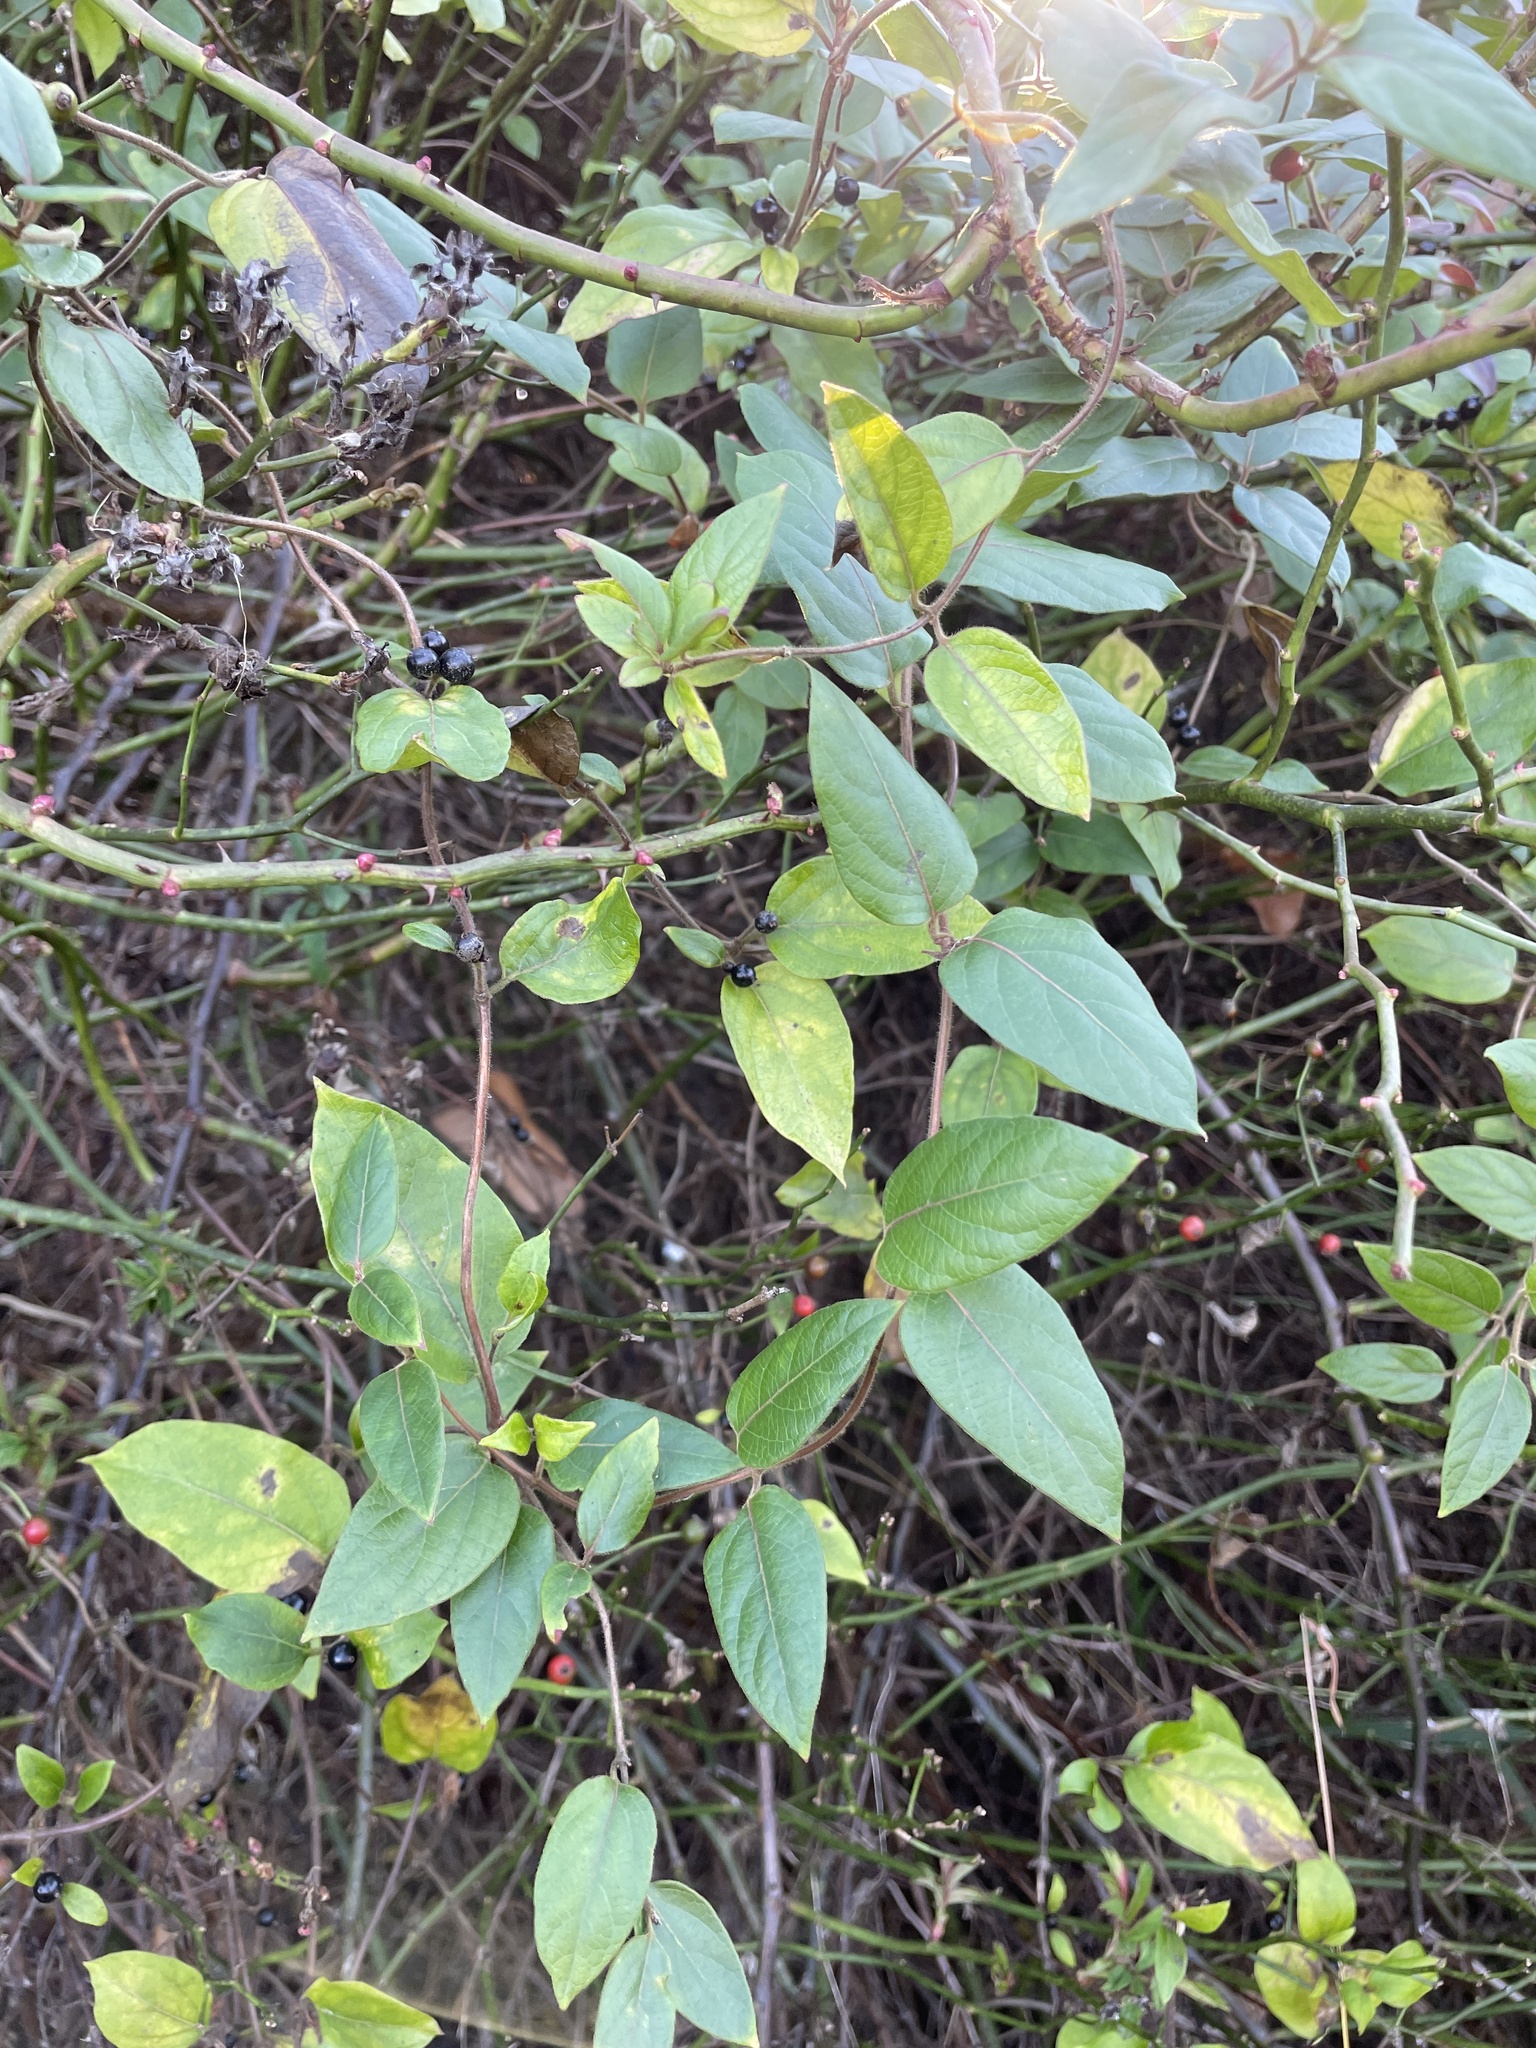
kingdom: Plantae
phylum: Tracheophyta
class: Magnoliopsida
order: Dipsacales
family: Caprifoliaceae
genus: Lonicera
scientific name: Lonicera japonica
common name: Japanese honeysuckle
